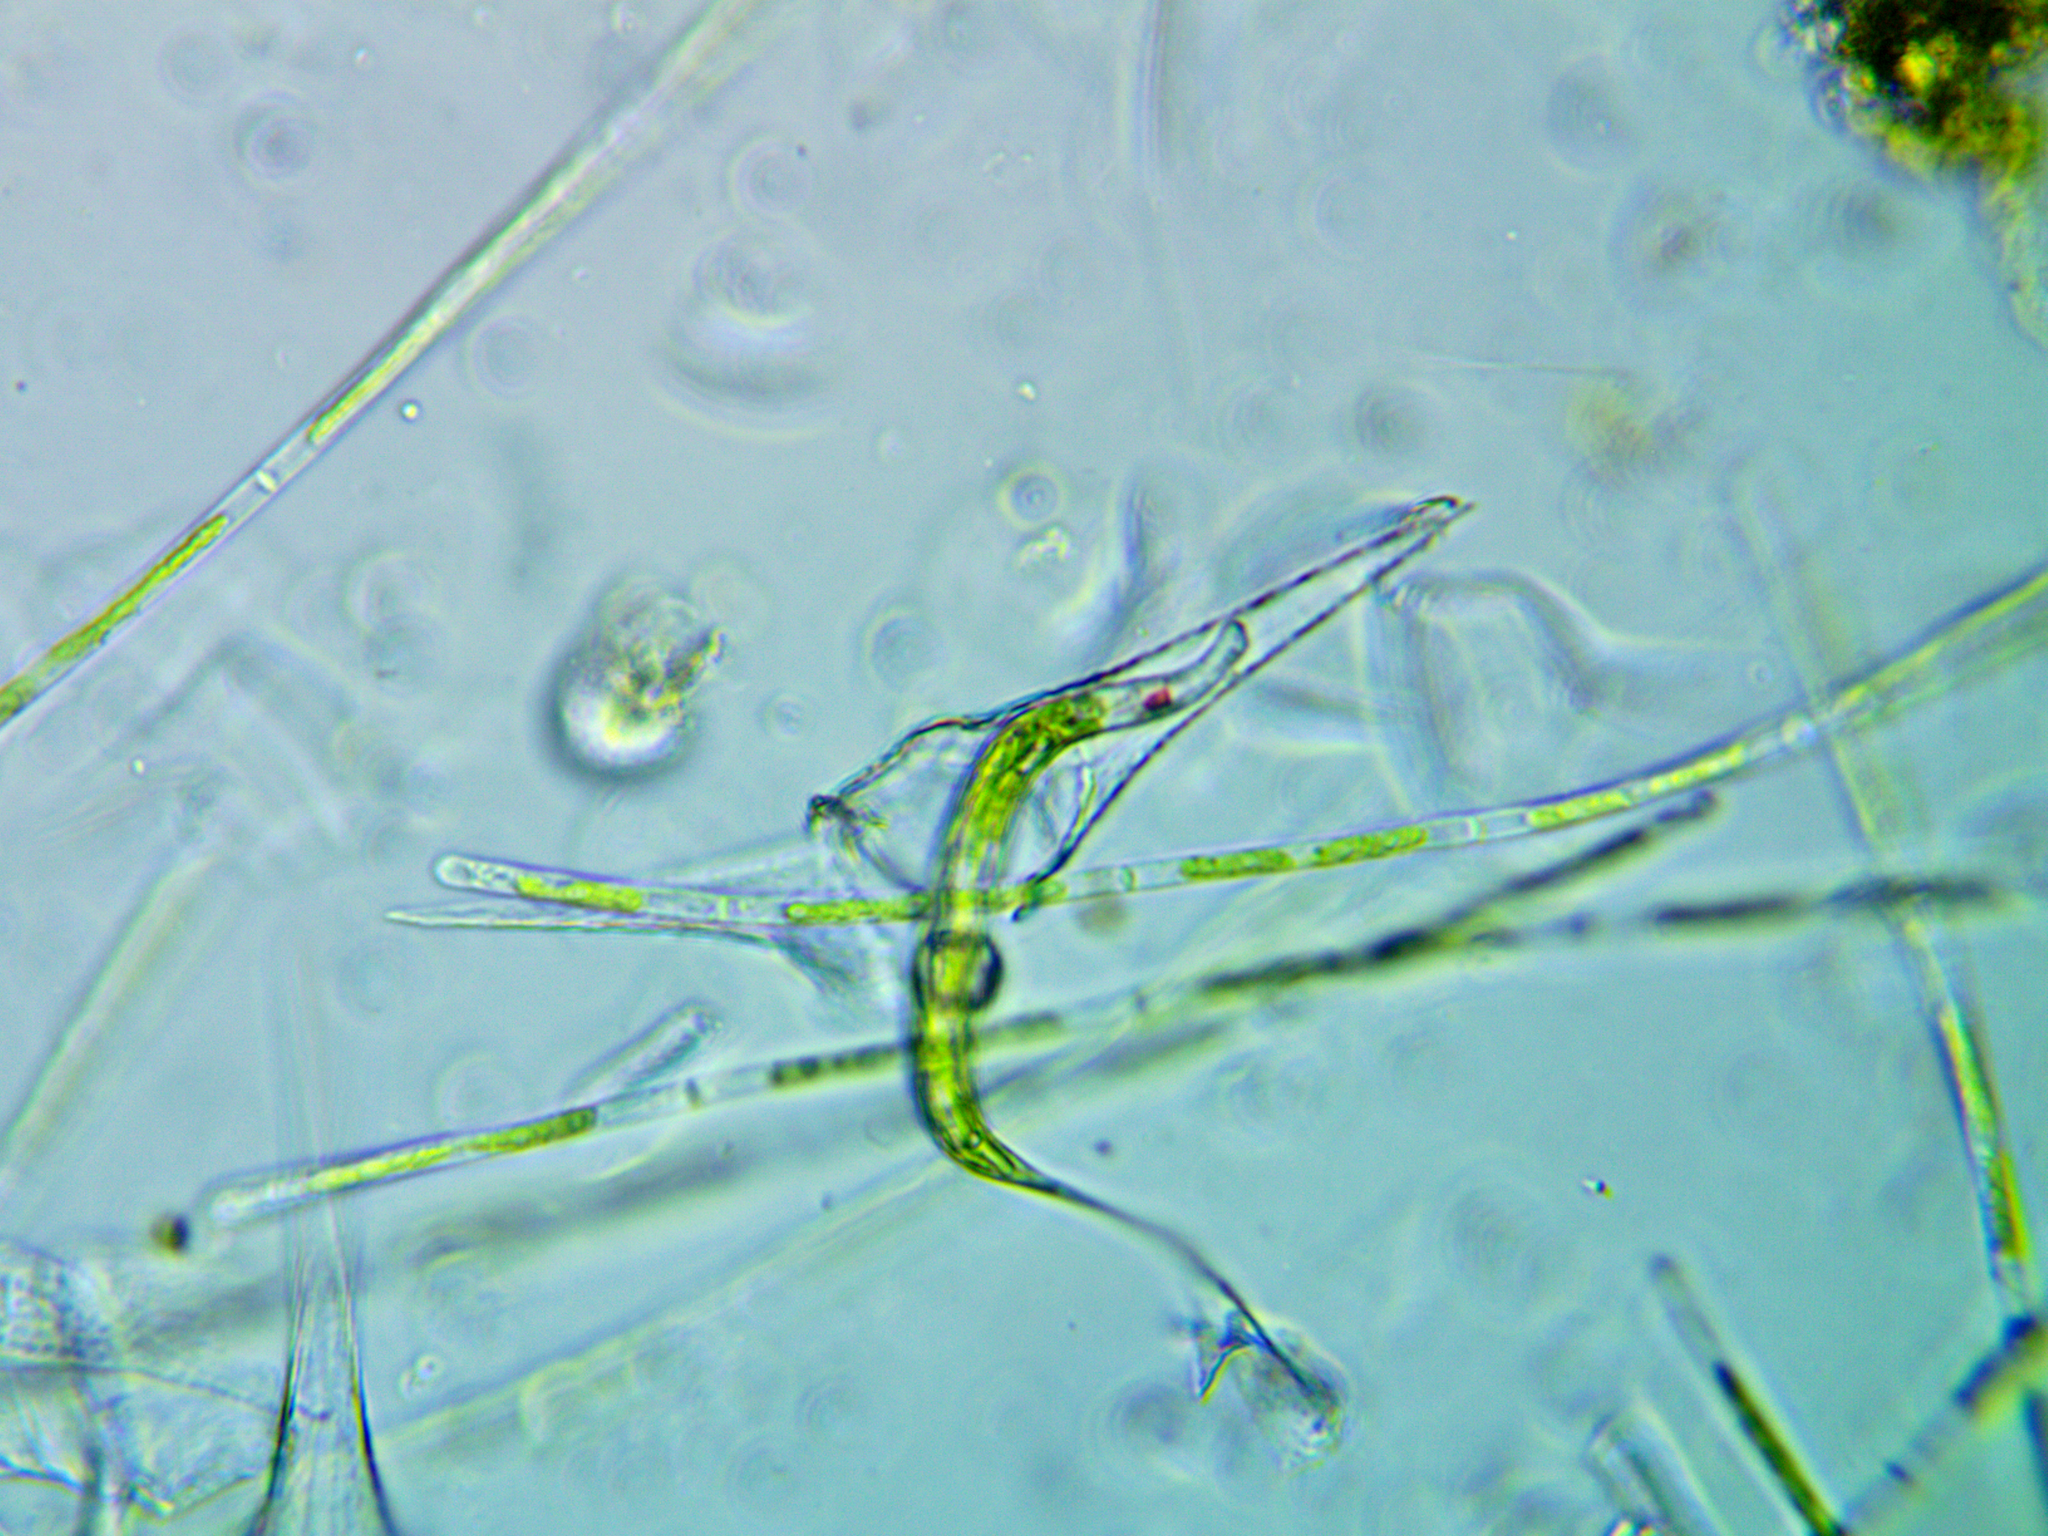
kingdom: Protozoa
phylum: Euglenozoa
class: Euglenoidea
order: Euglenida
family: Phacidae
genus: Lepocinclis
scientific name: Lepocinclis acus
